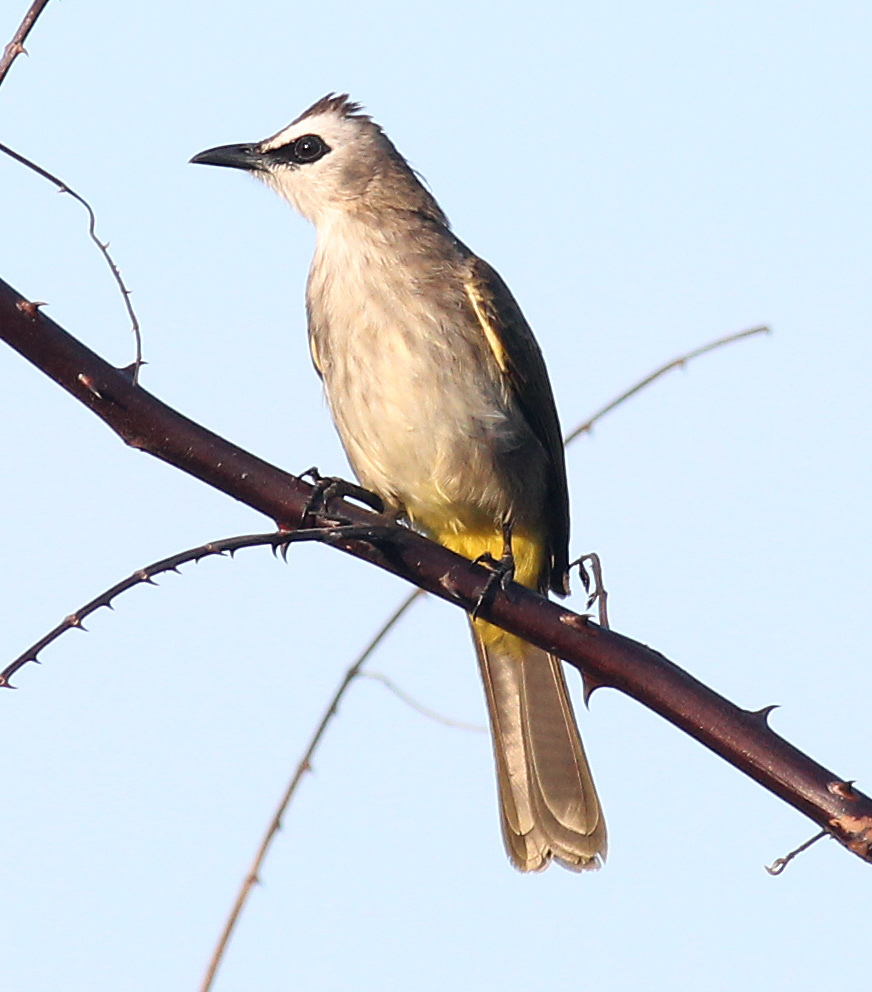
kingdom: Animalia
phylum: Chordata
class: Aves
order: Passeriformes
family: Pycnonotidae
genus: Pycnonotus
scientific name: Pycnonotus goiavier
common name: Yellow-vented bulbul
